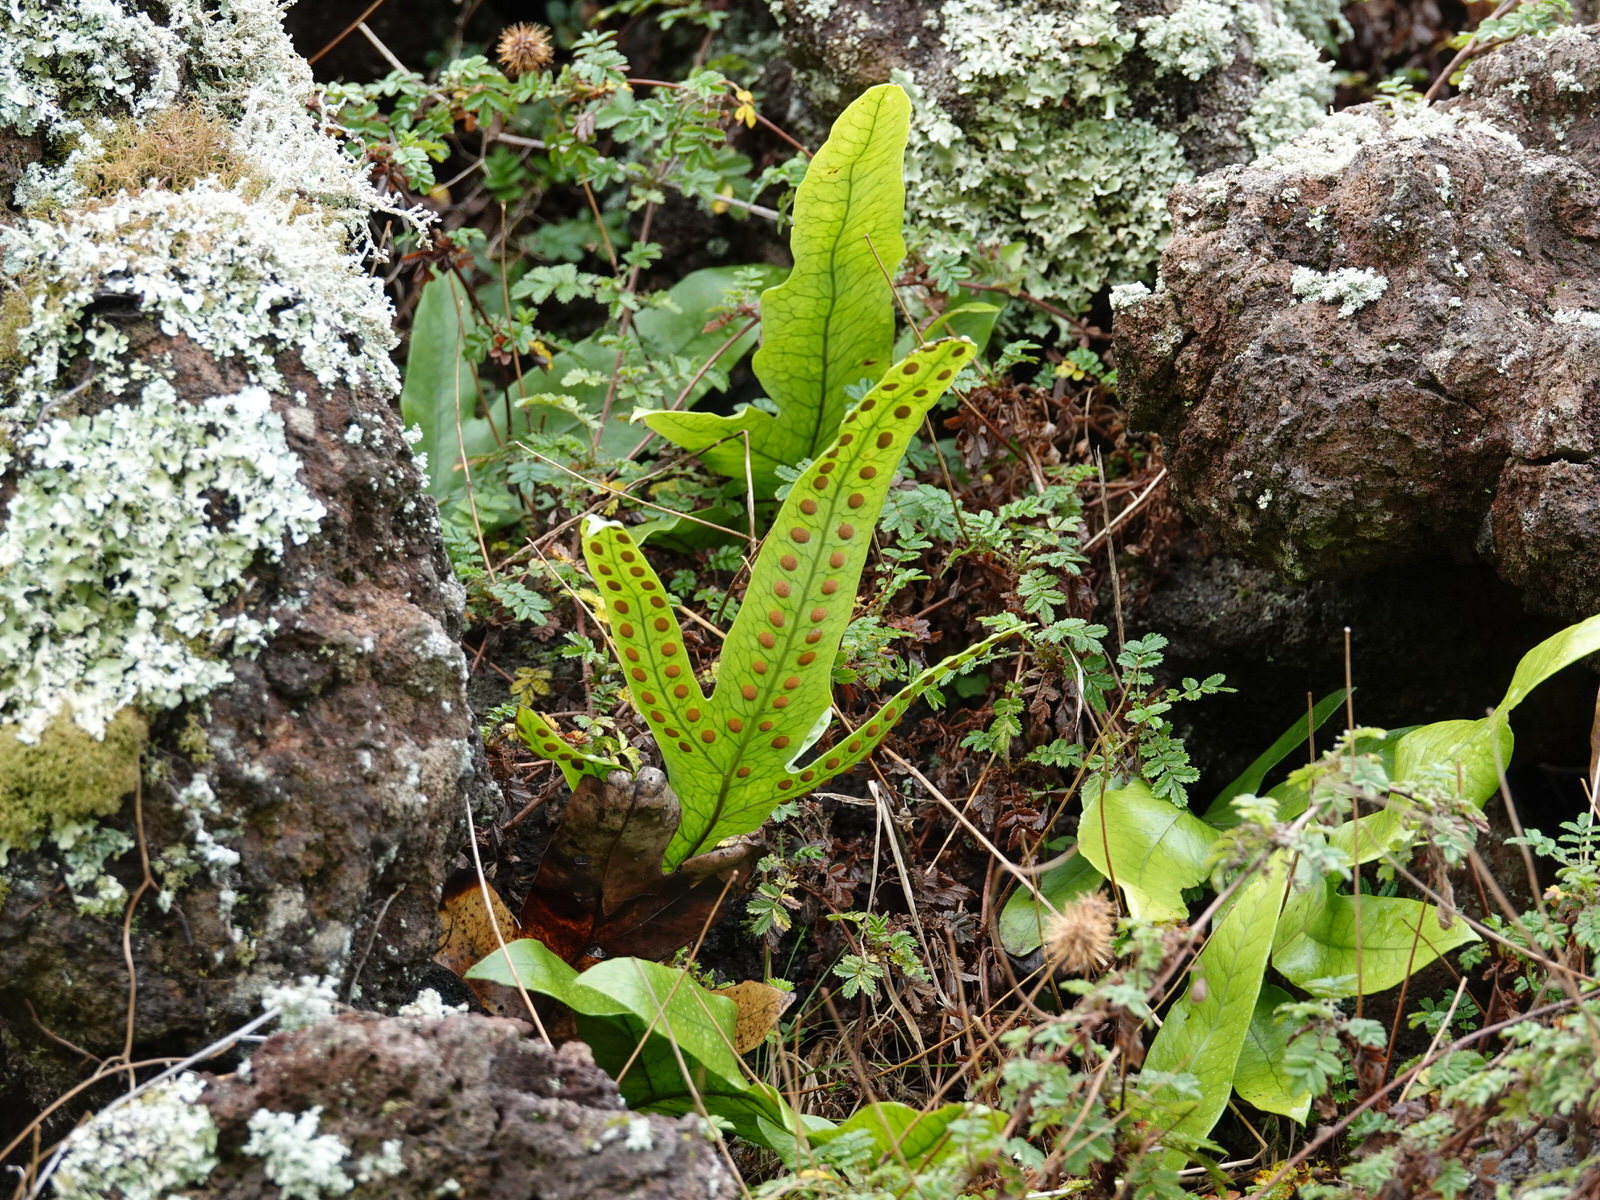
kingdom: Plantae
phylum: Tracheophyta
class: Polypodiopsida
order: Polypodiales
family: Polypodiaceae
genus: Lecanopteris
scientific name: Lecanopteris pustulata
